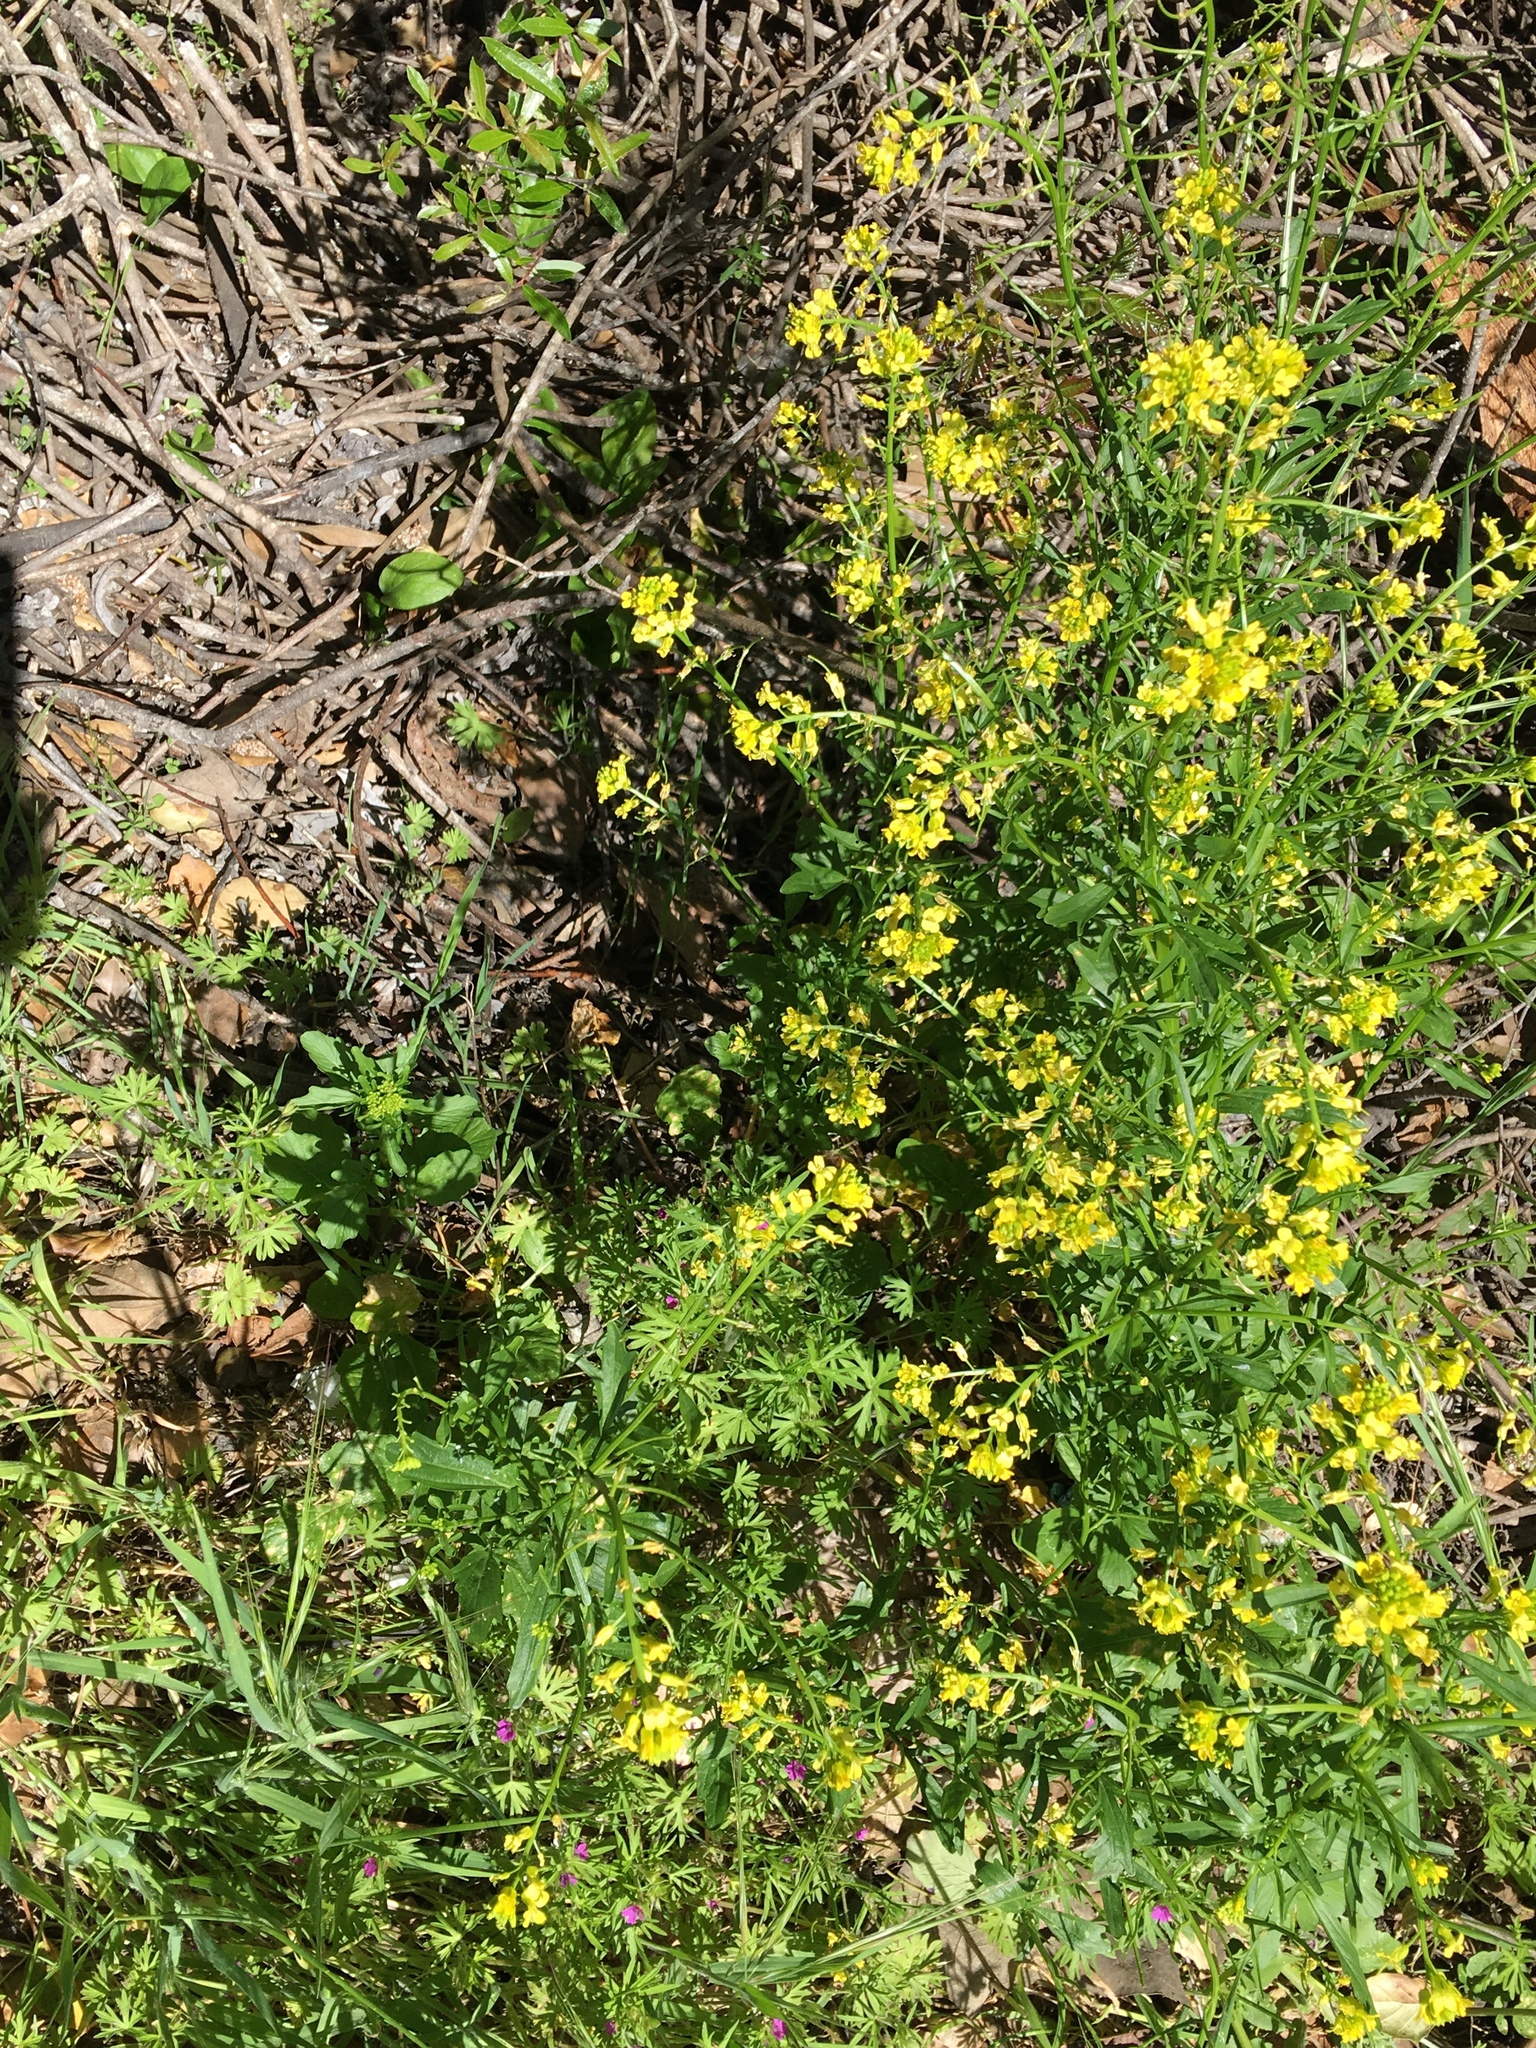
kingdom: Plantae
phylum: Tracheophyta
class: Magnoliopsida
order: Brassicales
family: Brassicaceae
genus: Barbarea
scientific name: Barbarea orthoceras
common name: American wintercress
